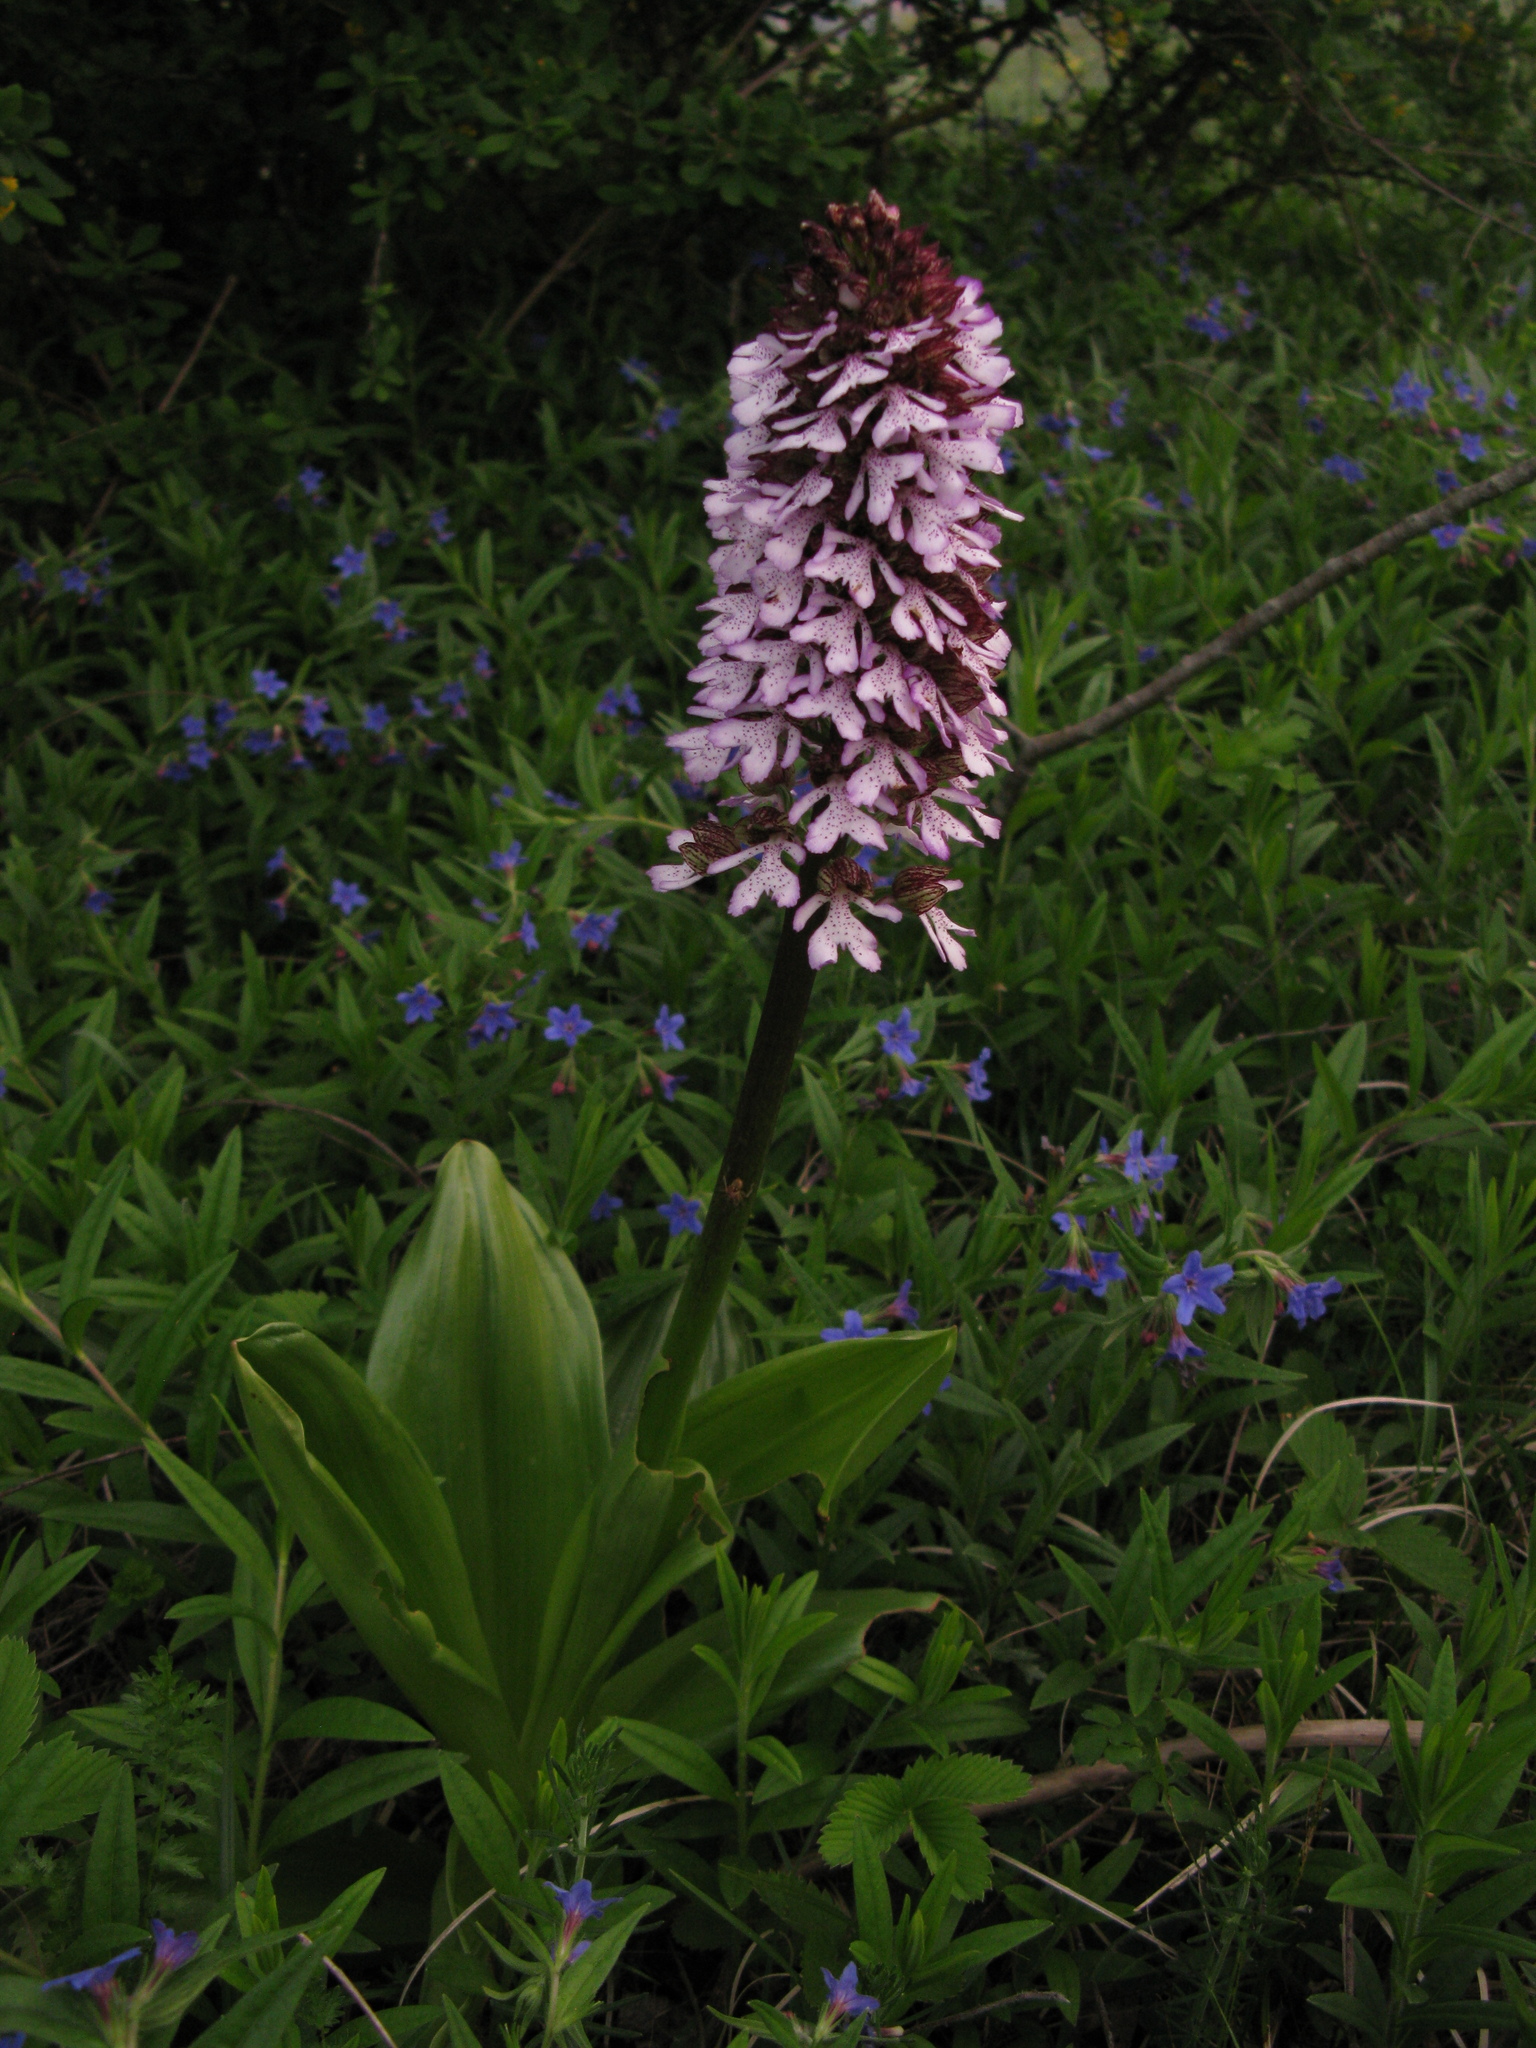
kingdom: Plantae
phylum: Tracheophyta
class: Liliopsida
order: Asparagales
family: Orchidaceae
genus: Orchis
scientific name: Orchis purpurea
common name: Lady orchid
